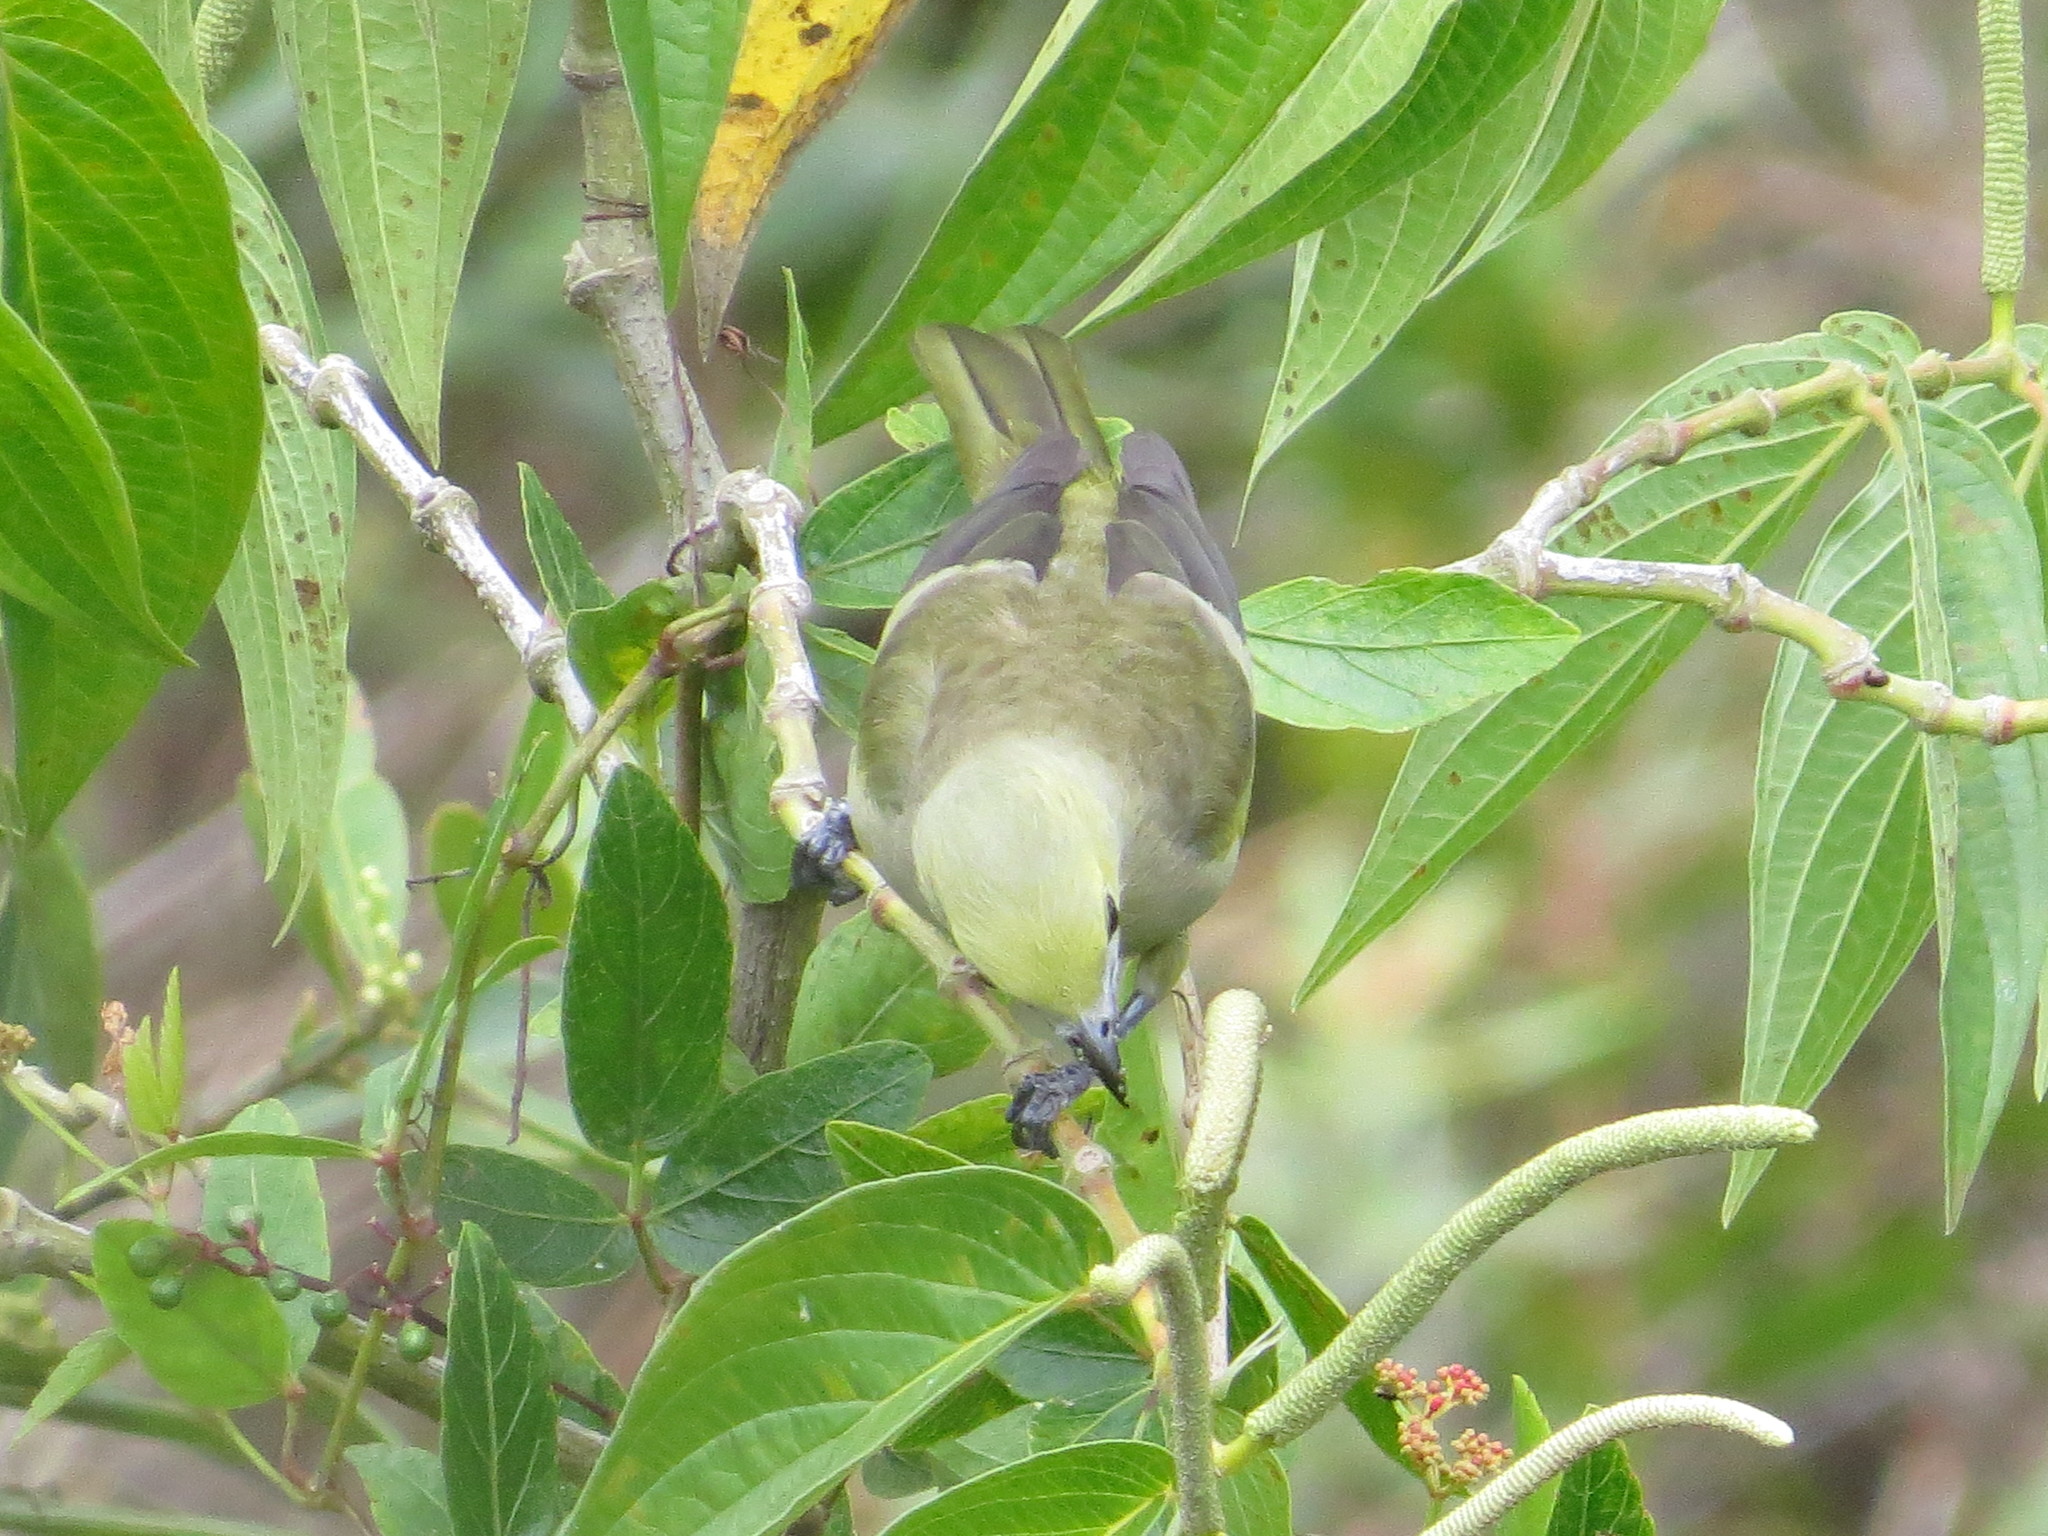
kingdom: Animalia
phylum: Chordata
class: Aves
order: Passeriformes
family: Thraupidae
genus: Thraupis
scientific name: Thraupis palmarum
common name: Palm tanager
